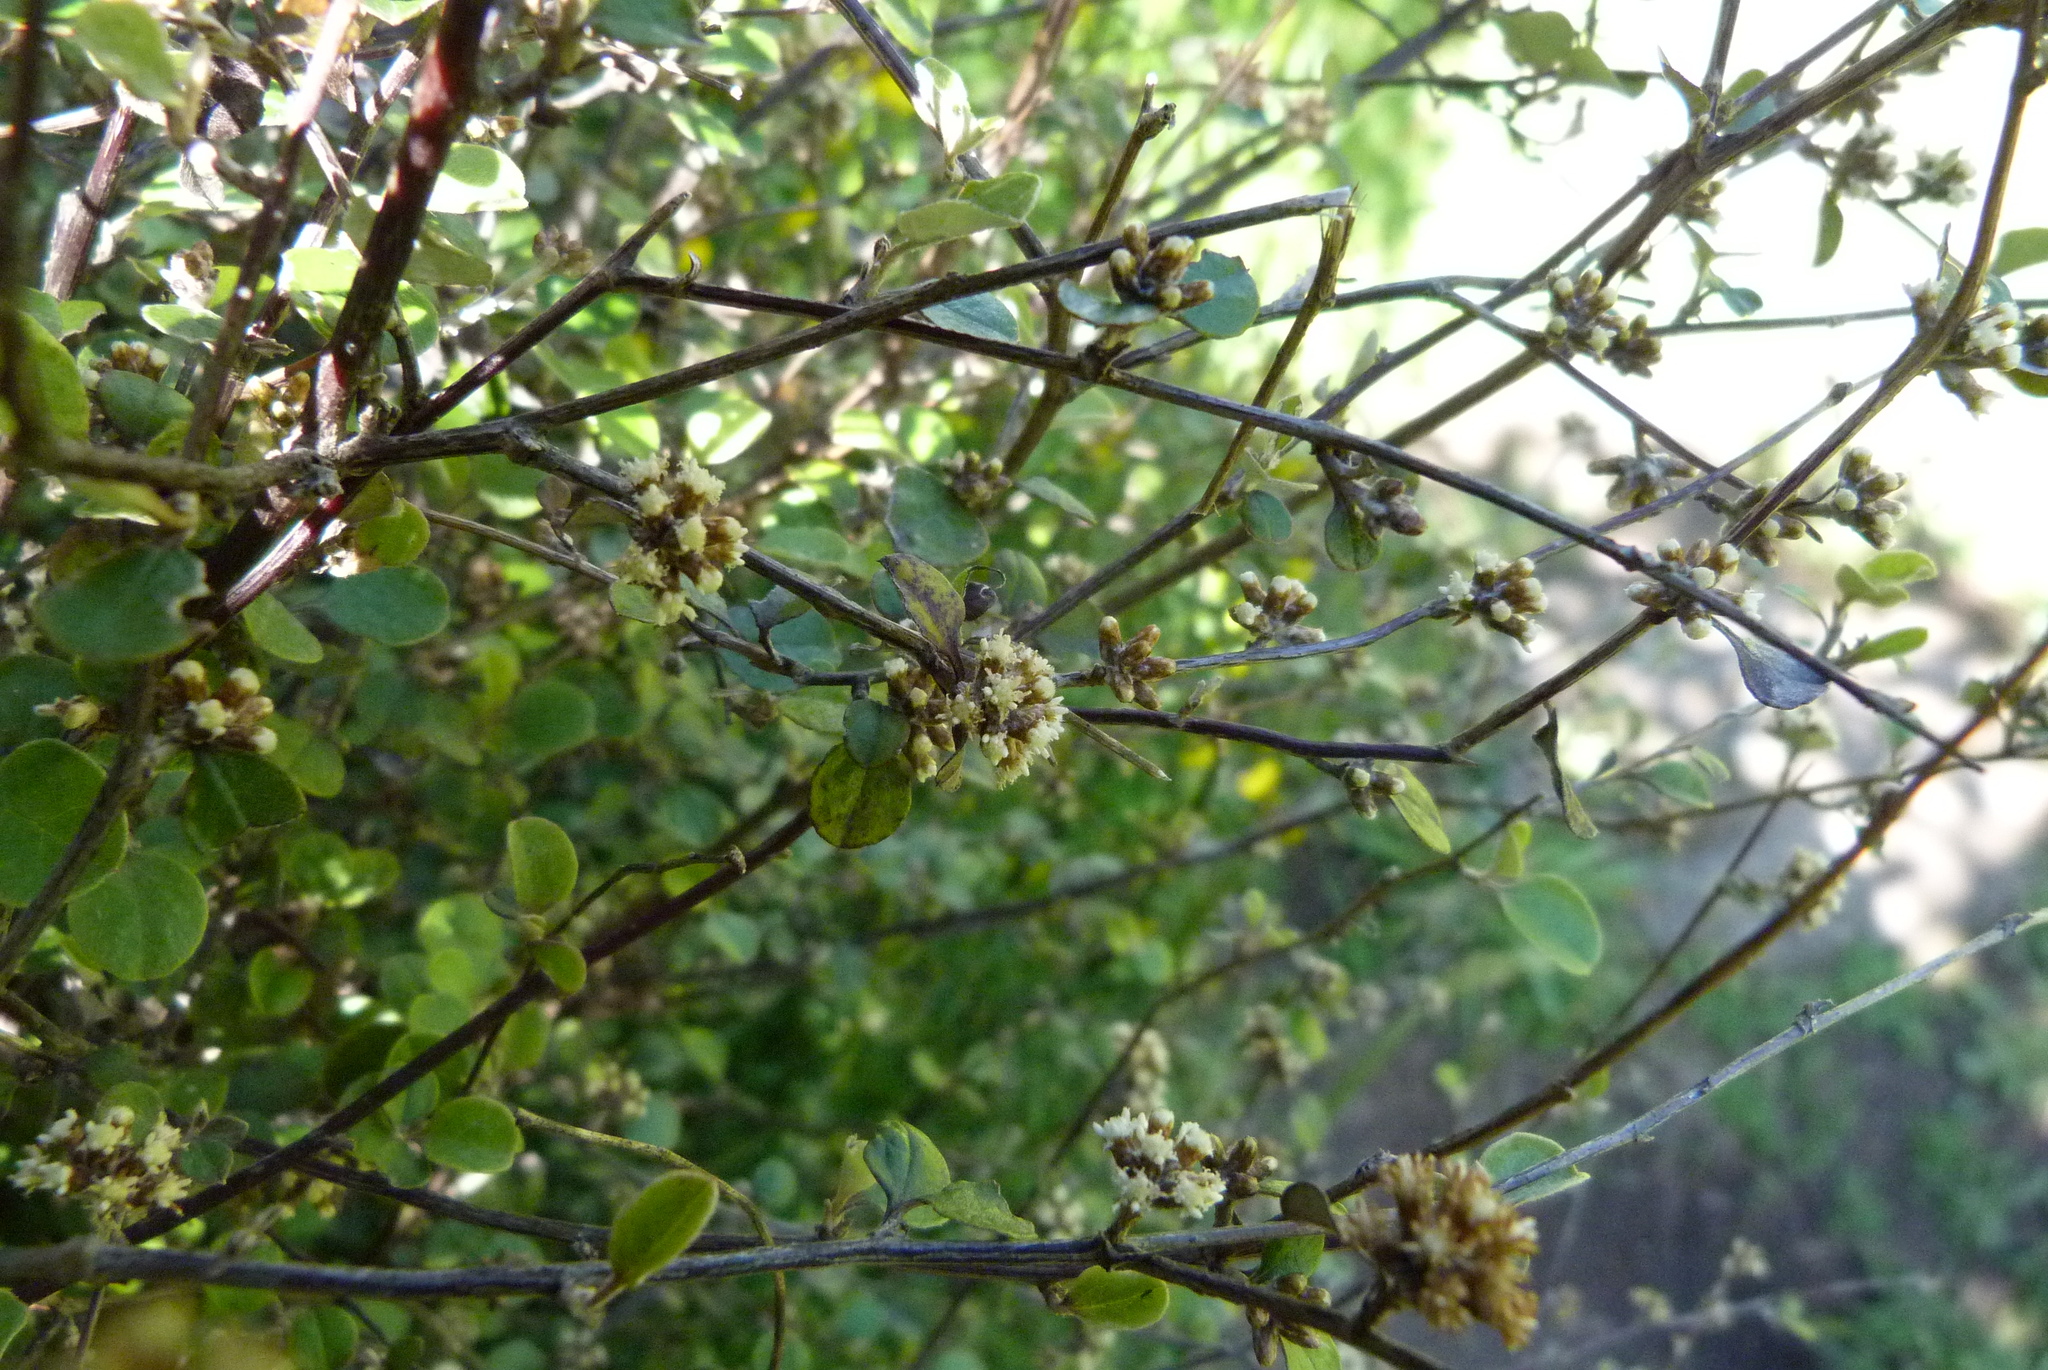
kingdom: Plantae
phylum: Tracheophyta
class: Magnoliopsida
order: Asterales
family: Asteraceae
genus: Ozothamnus
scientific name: Ozothamnus glomeratus
